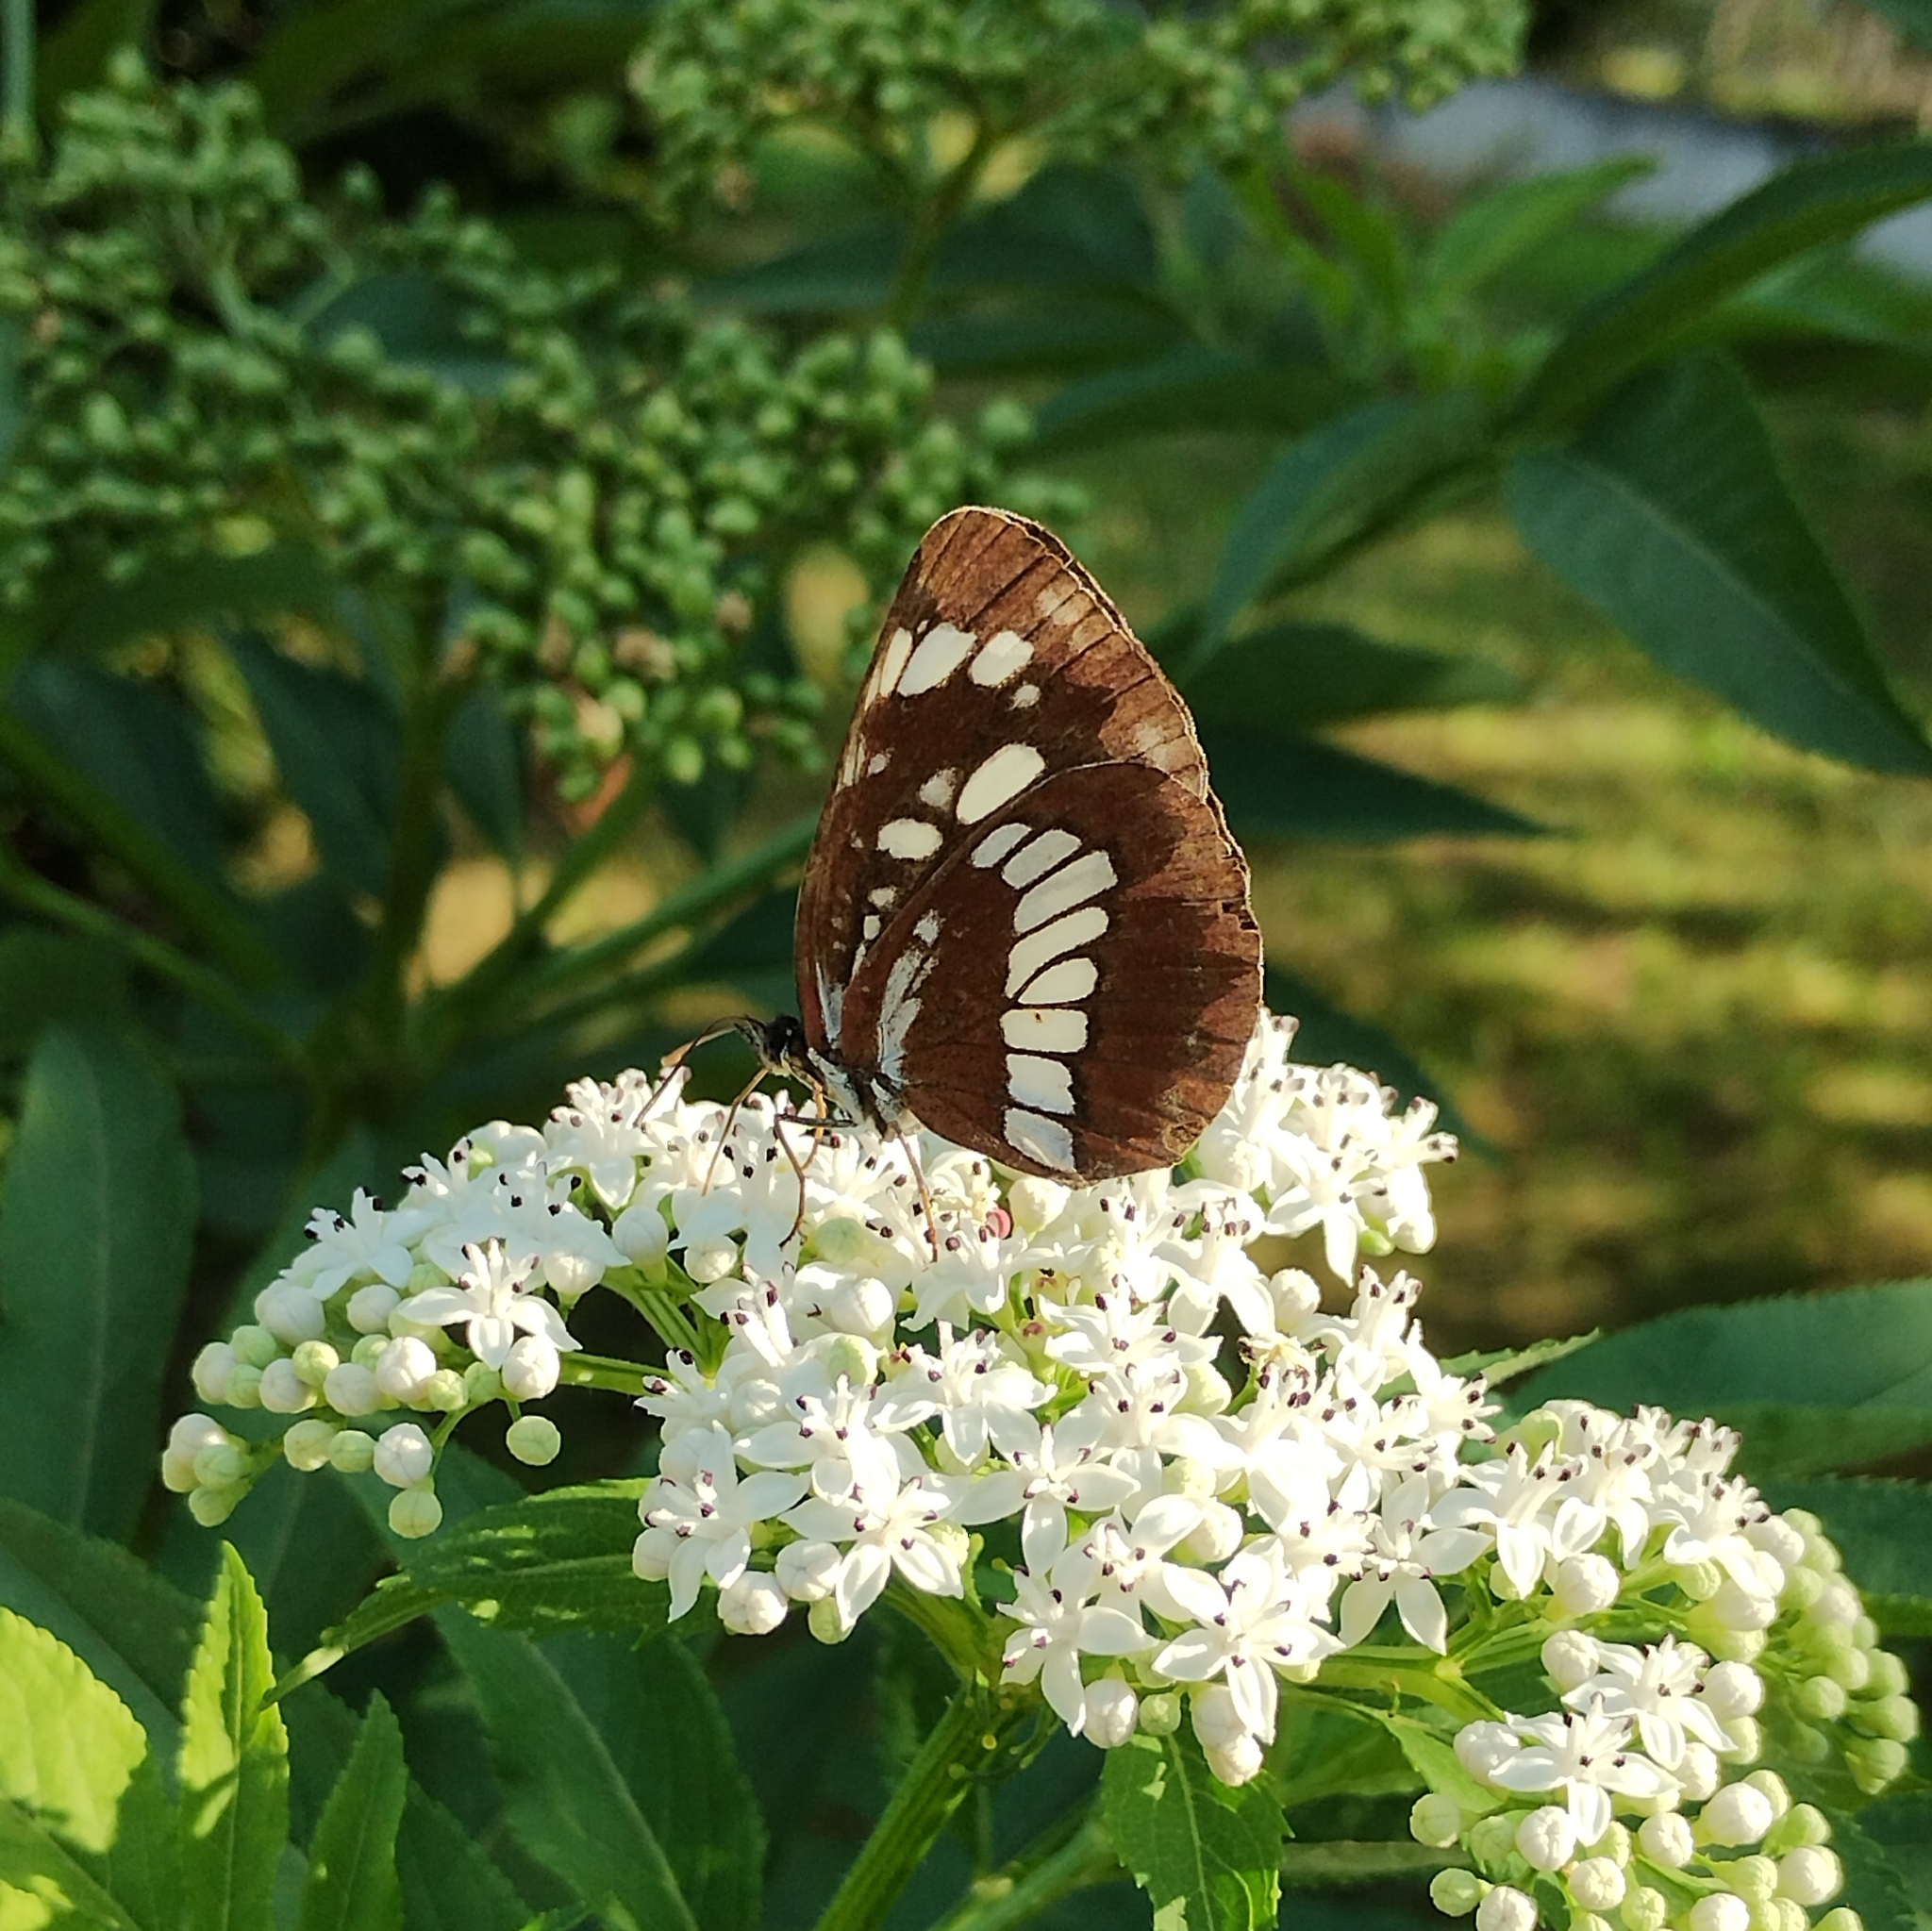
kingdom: Animalia
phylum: Arthropoda
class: Insecta
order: Lepidoptera
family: Nymphalidae
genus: Neptis
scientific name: Neptis rivularis
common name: Hungarian glider
